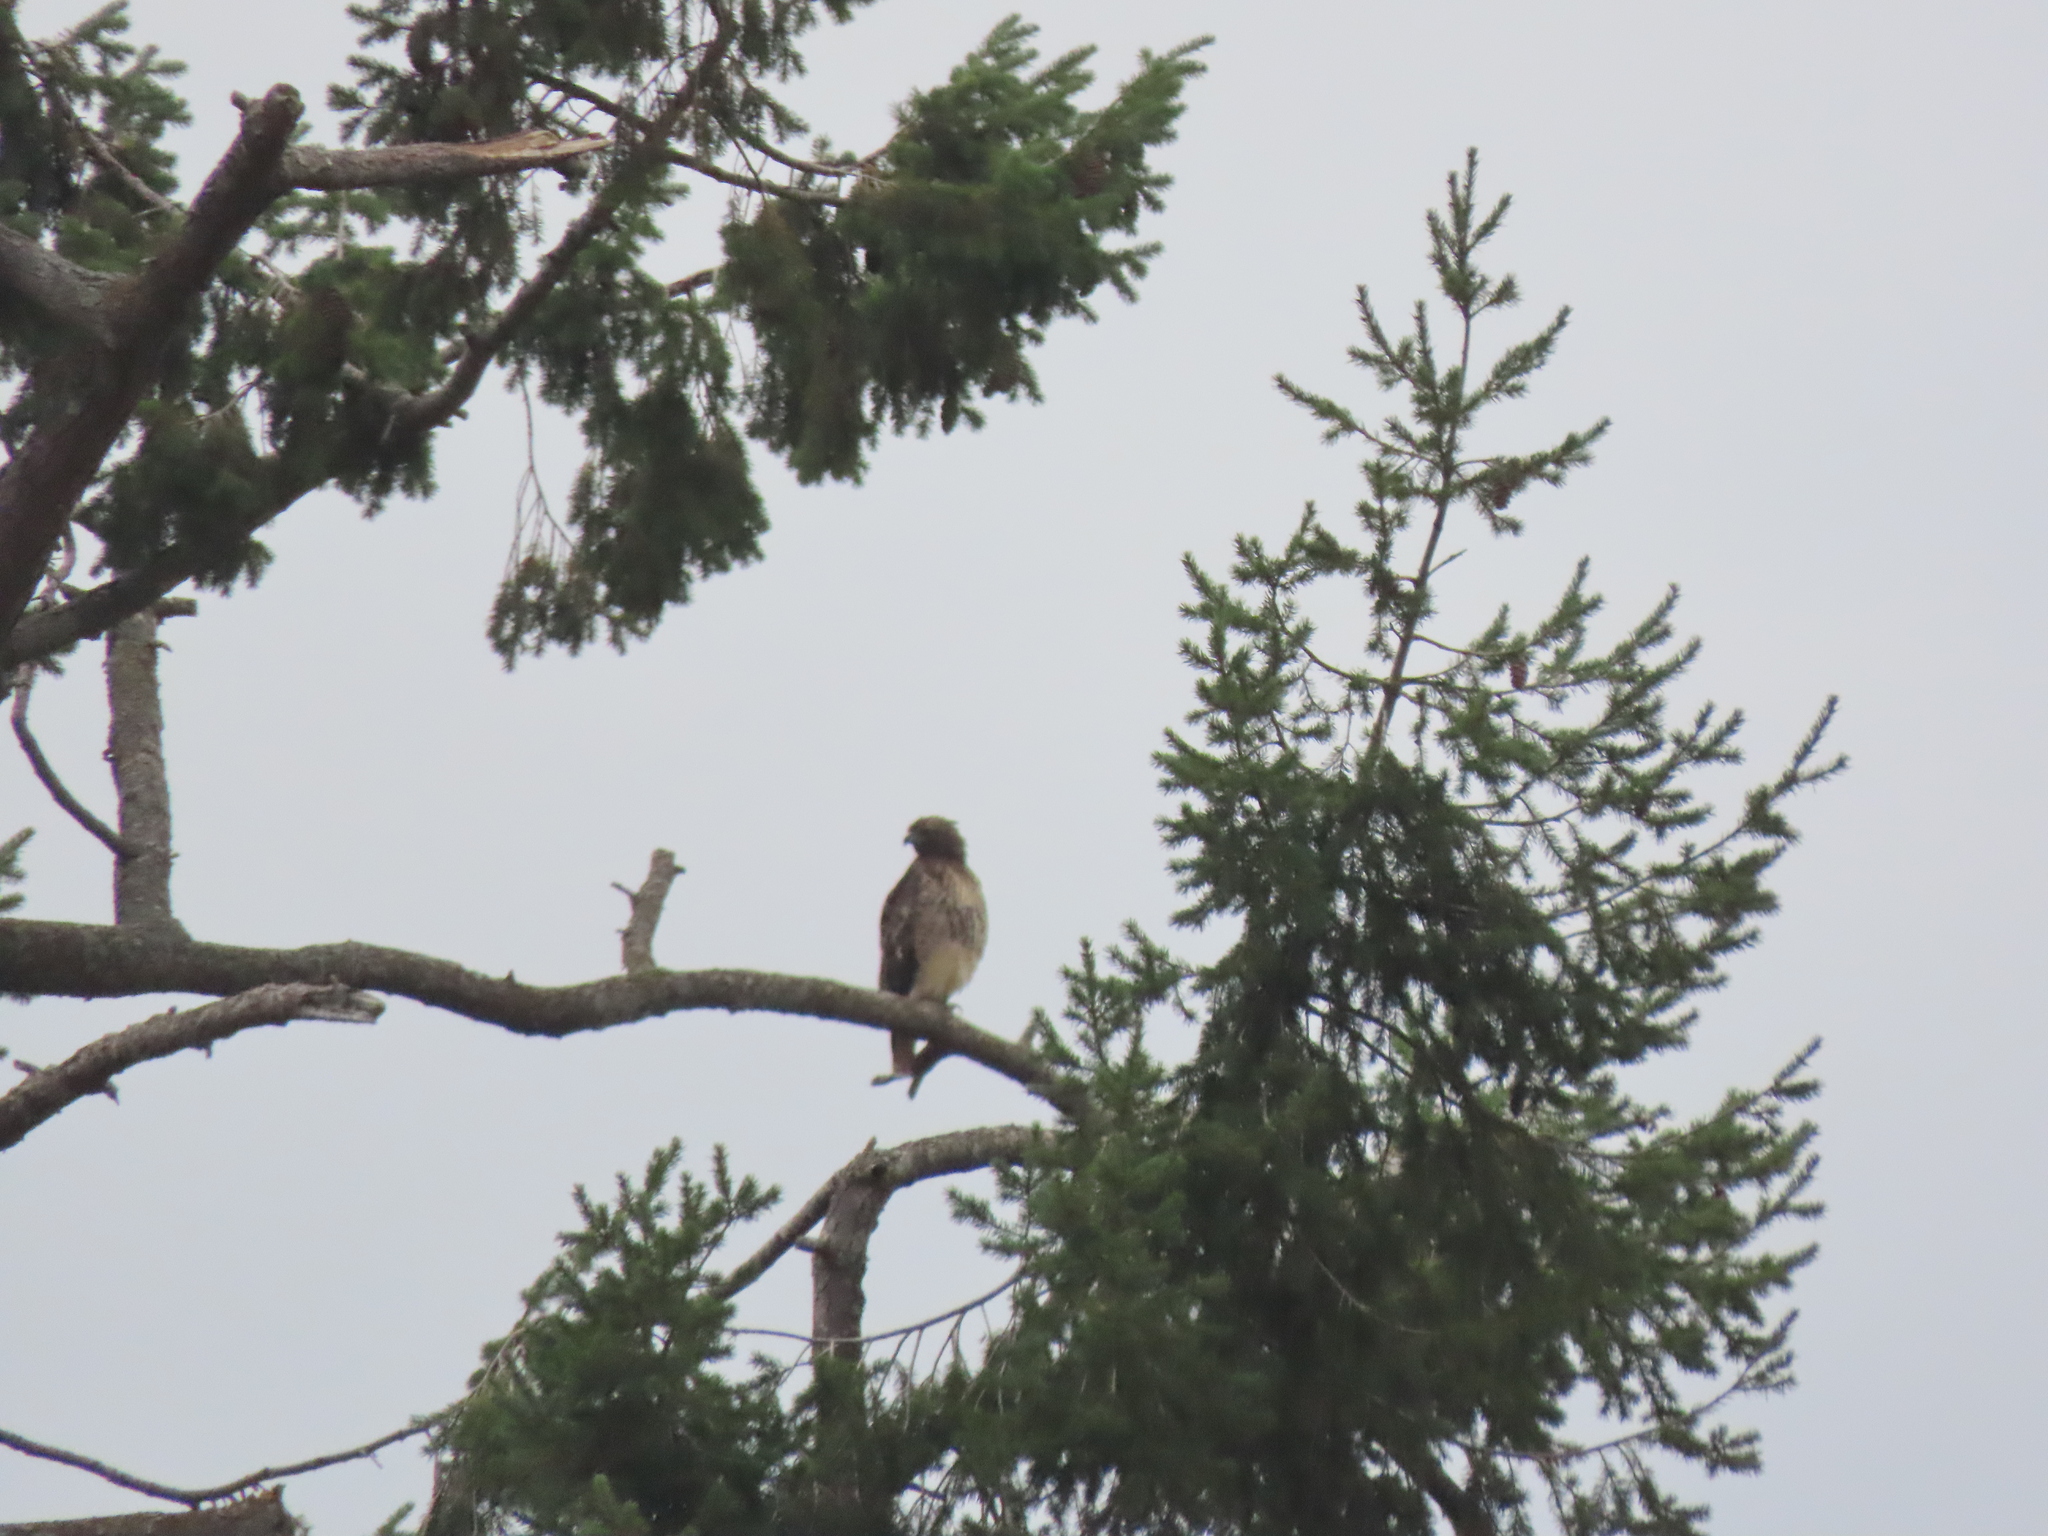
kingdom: Animalia
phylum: Chordata
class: Aves
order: Accipitriformes
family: Accipitridae
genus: Buteo
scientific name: Buteo jamaicensis
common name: Red-tailed hawk
